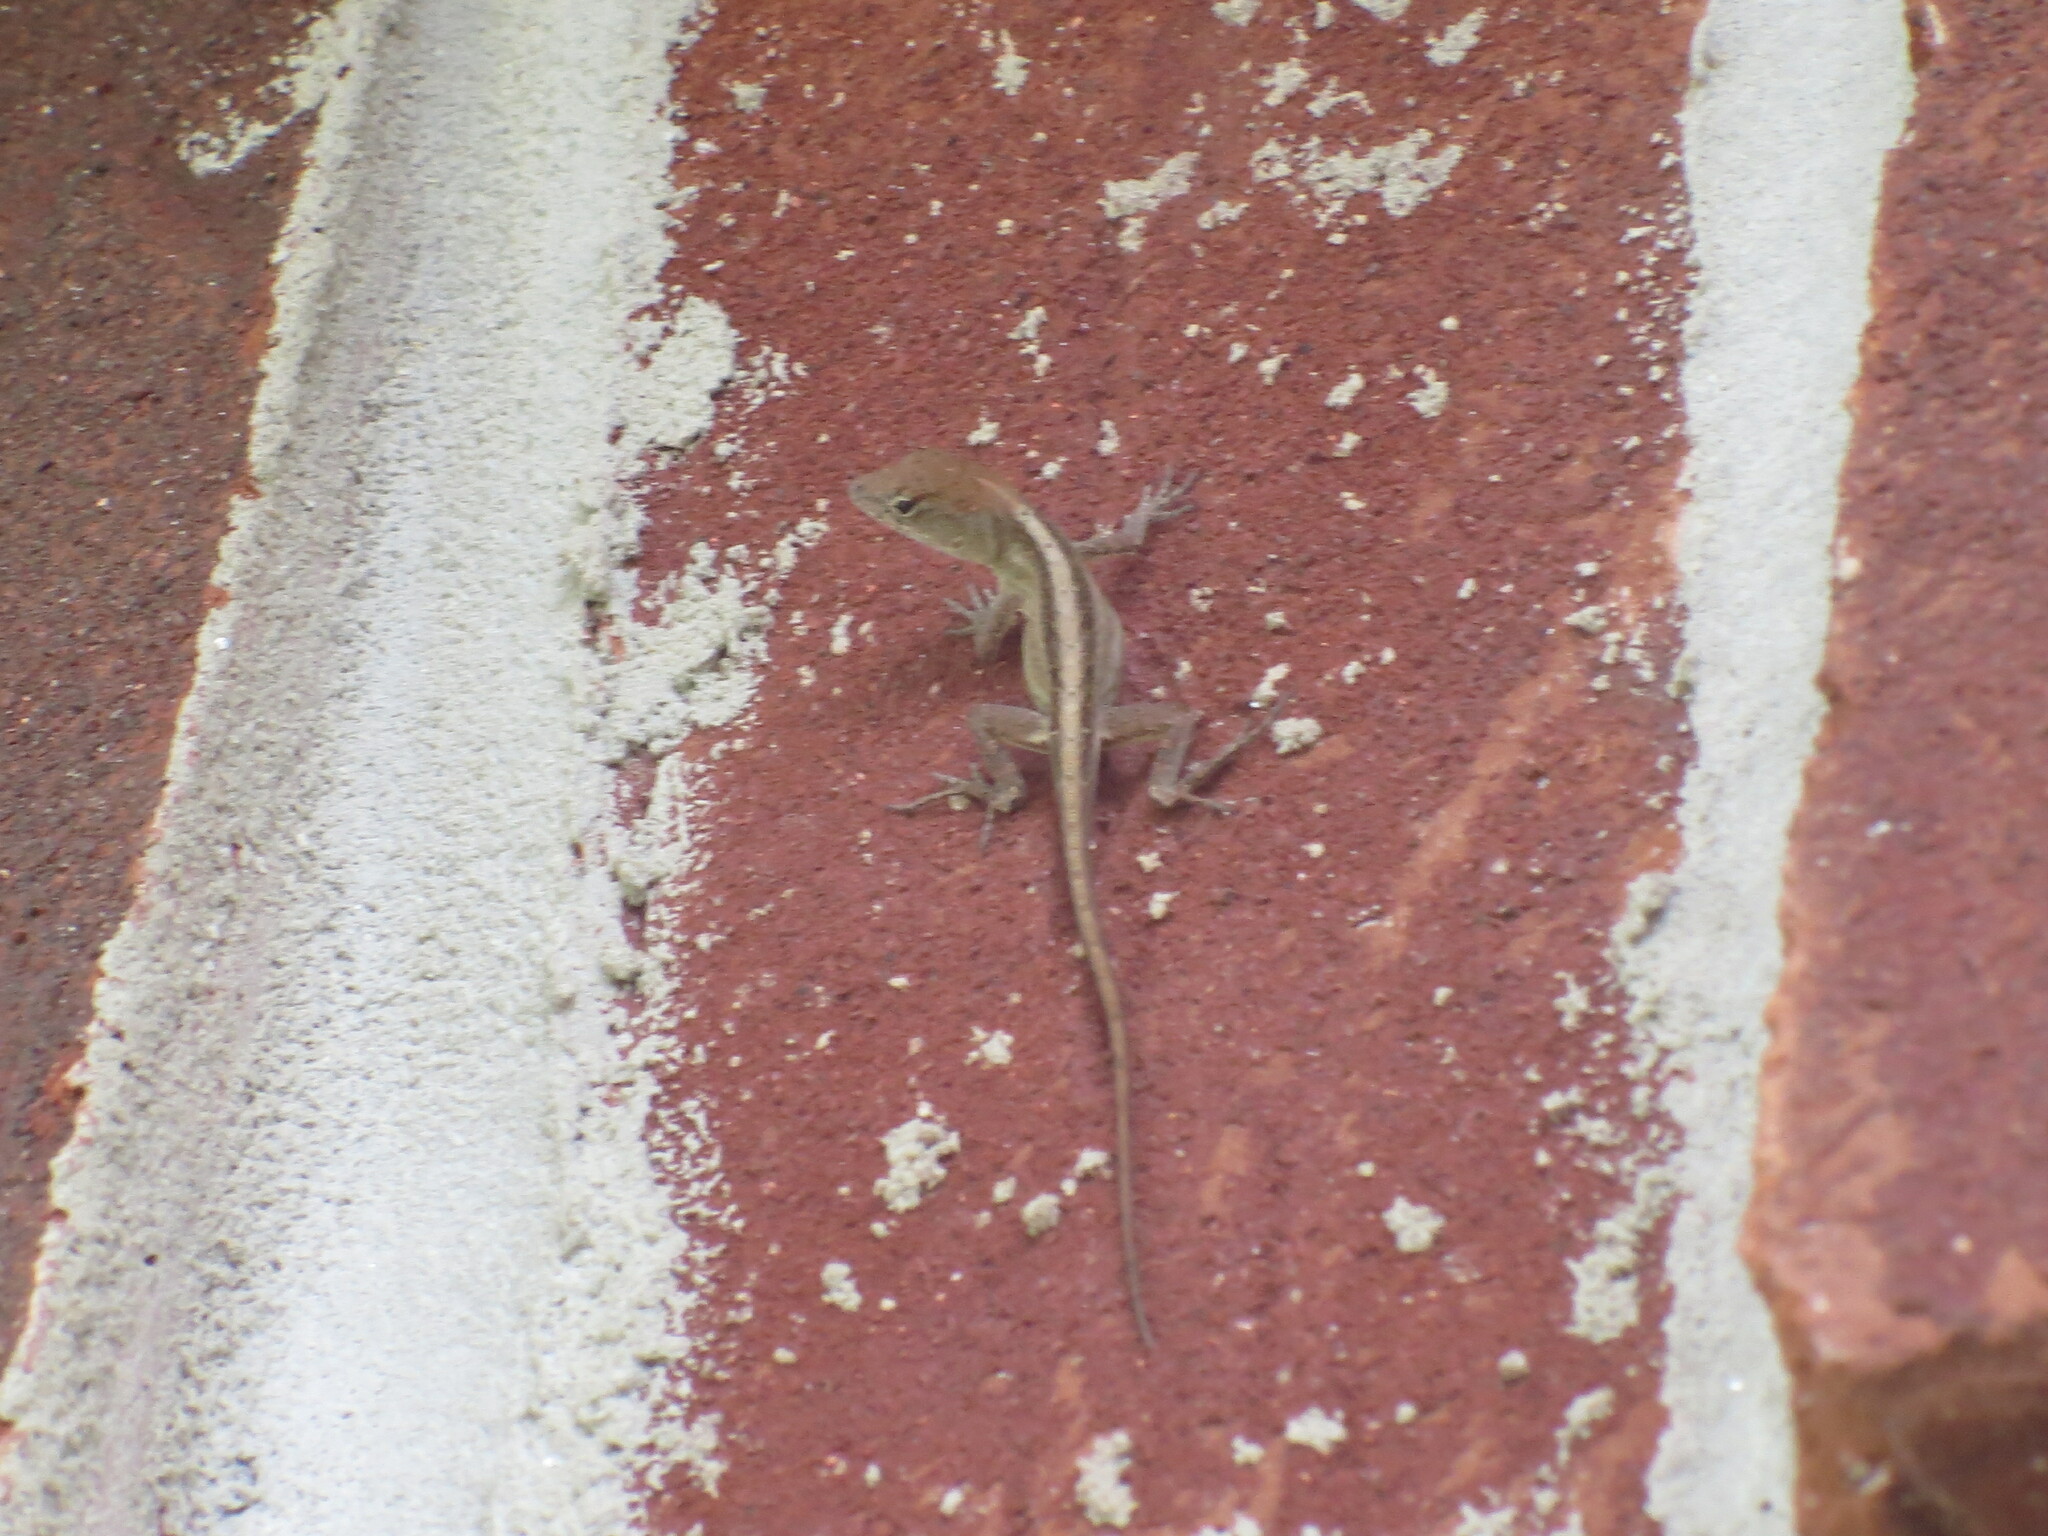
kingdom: Animalia
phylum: Chordata
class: Squamata
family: Dactyloidae
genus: Anolis
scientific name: Anolis sagrei
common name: Brown anole
